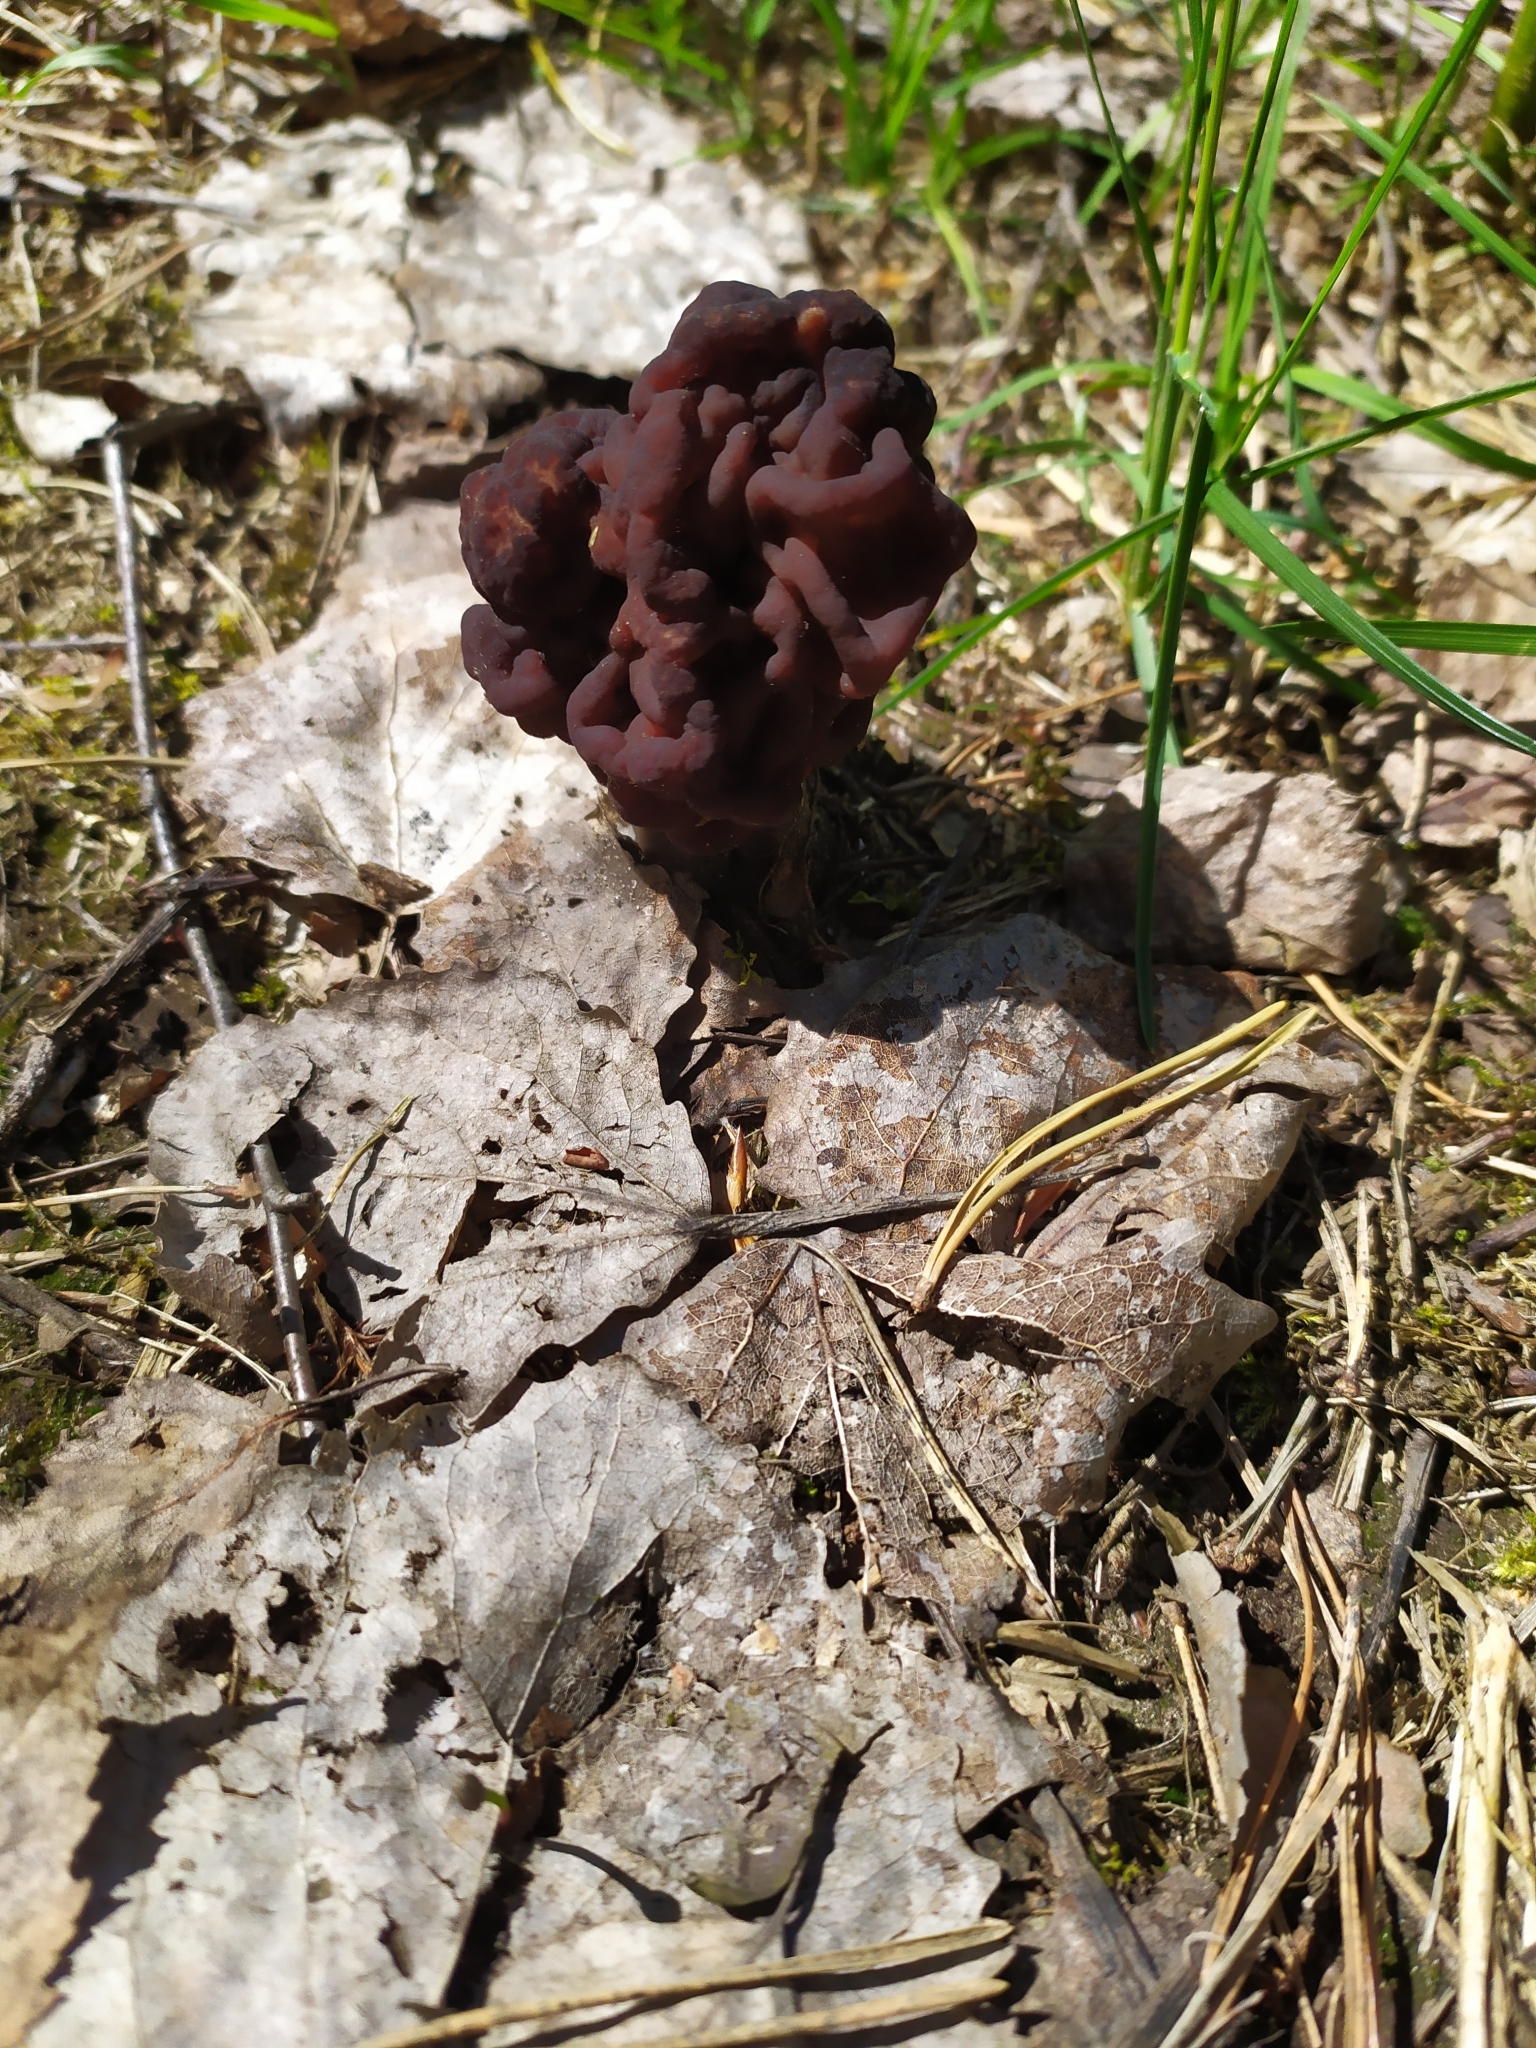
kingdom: Fungi
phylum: Ascomycota
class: Pezizomycetes
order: Pezizales
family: Discinaceae
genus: Gyromitra
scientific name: Gyromitra esculenta
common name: False morel
